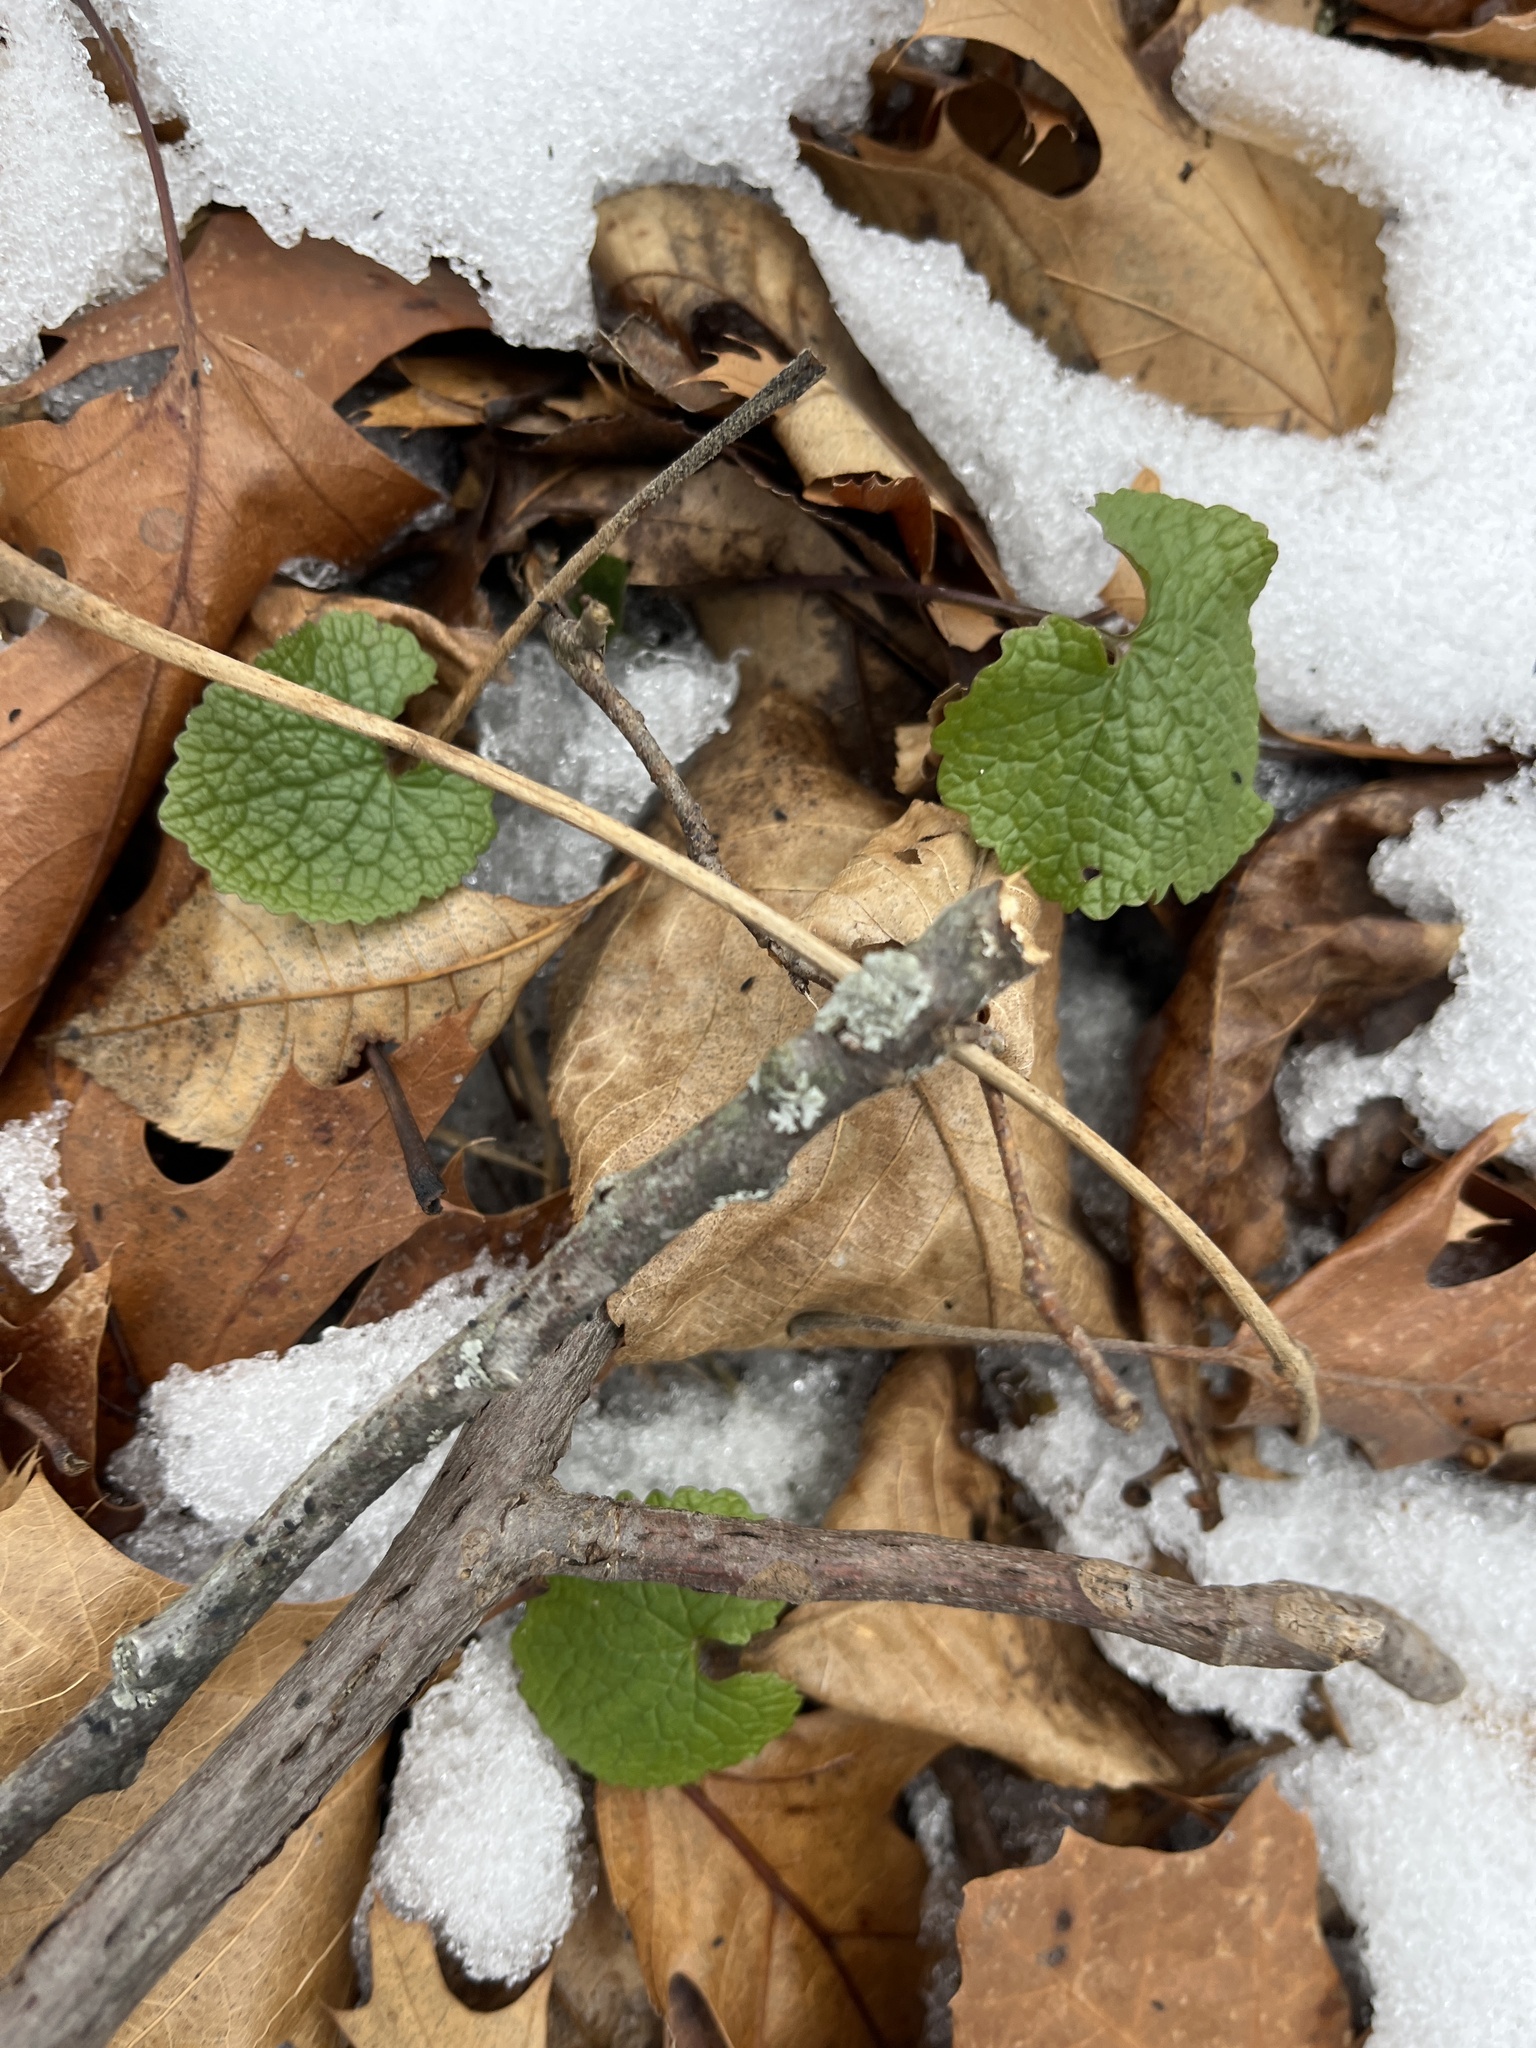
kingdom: Plantae
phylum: Tracheophyta
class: Magnoliopsida
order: Brassicales
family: Brassicaceae
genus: Alliaria
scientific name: Alliaria petiolata
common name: Garlic mustard
